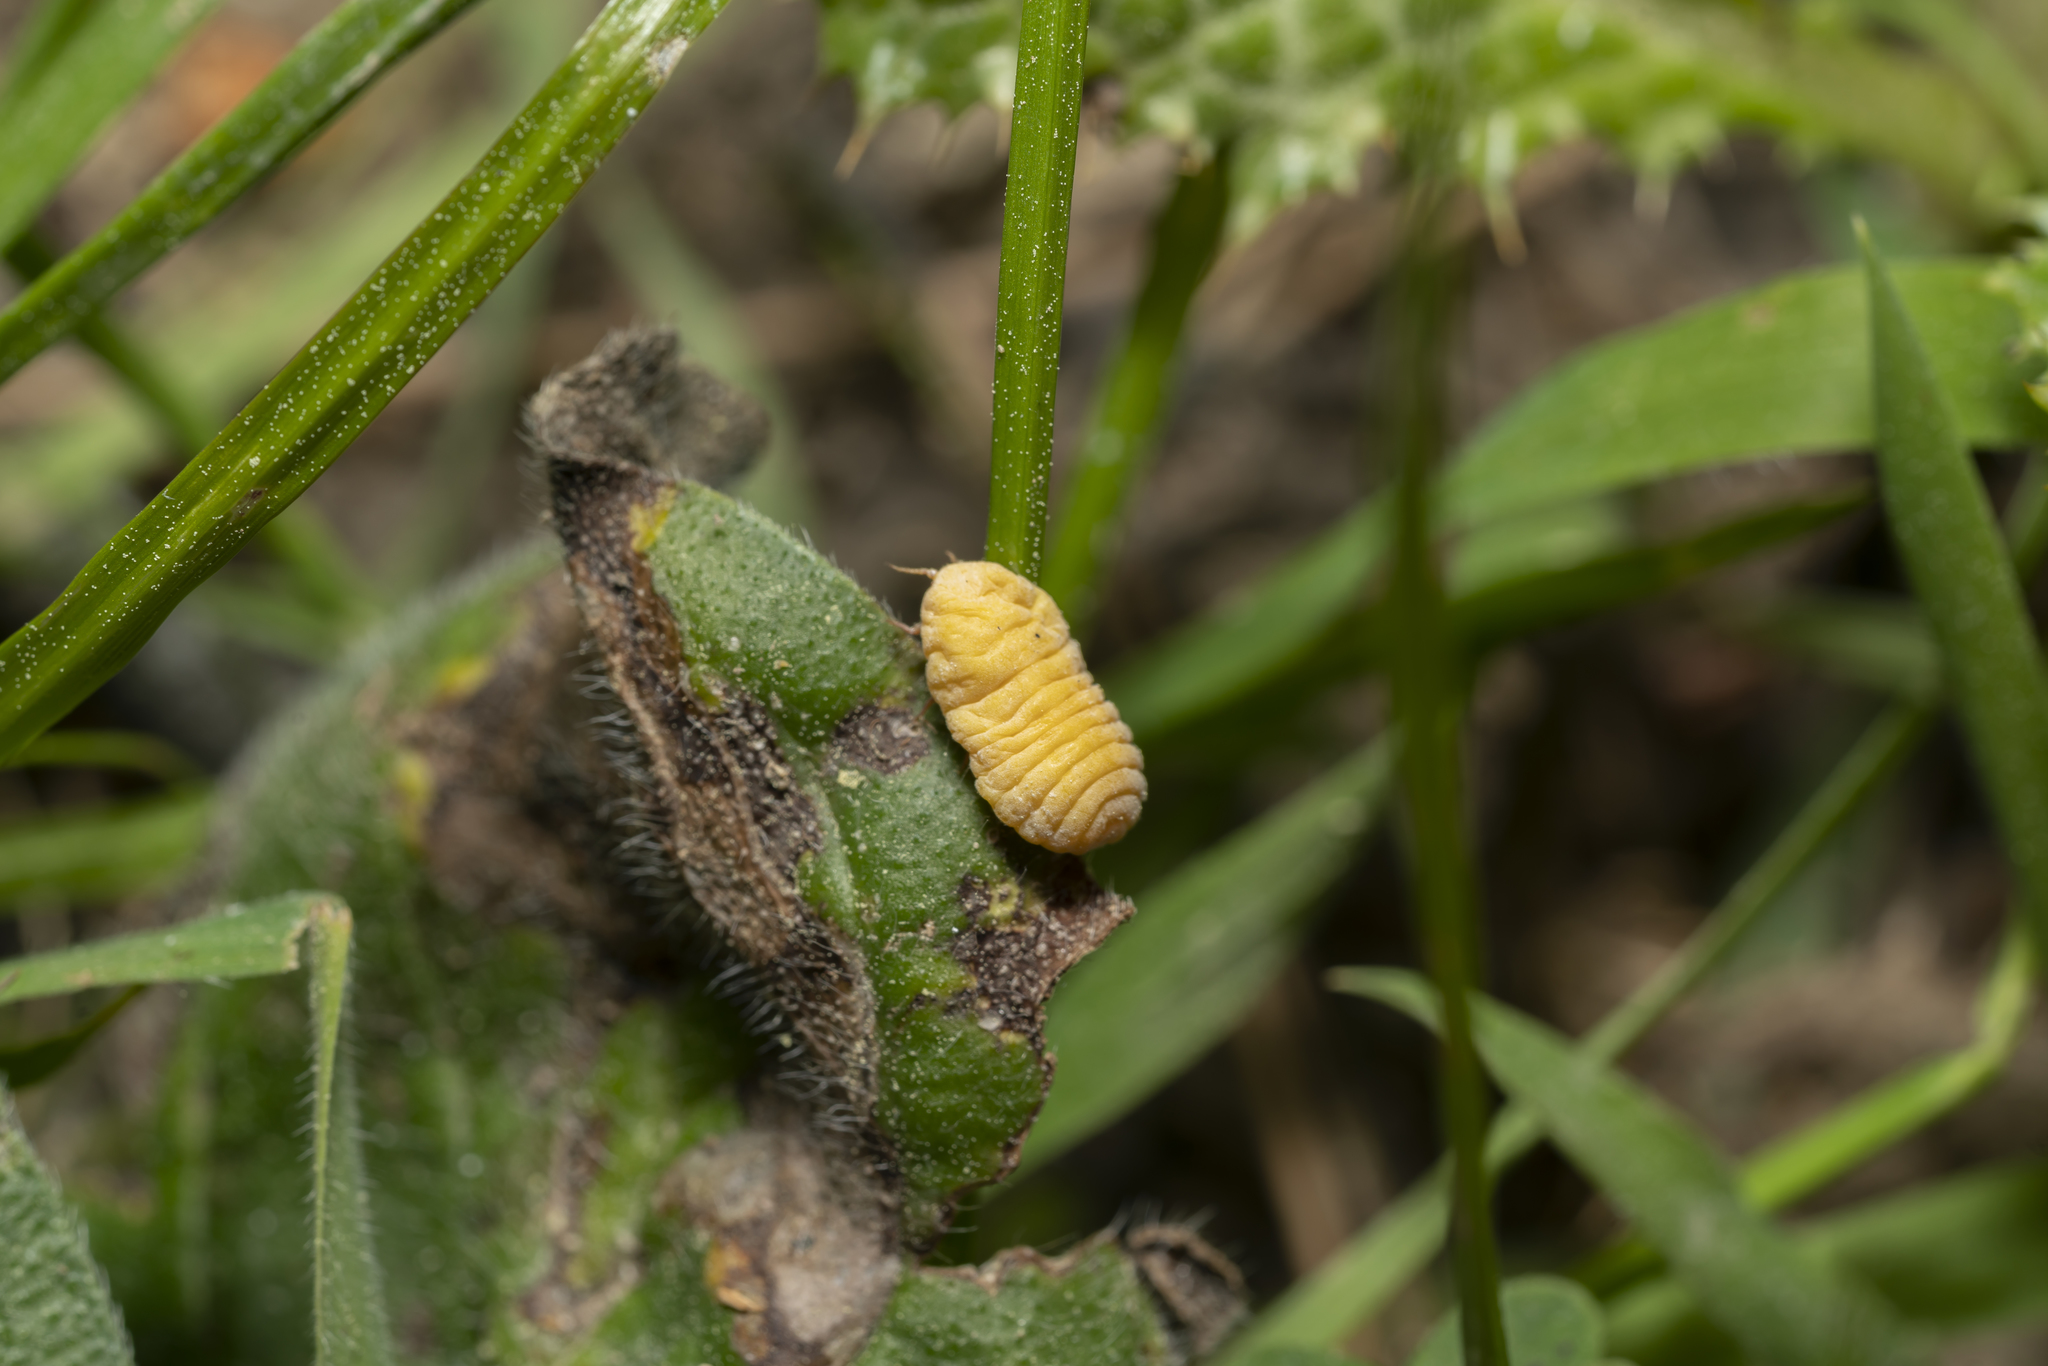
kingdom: Animalia
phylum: Arthropoda
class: Insecta
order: Hemiptera
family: Margarodidae
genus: Marchalina
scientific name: Marchalina hellenica
